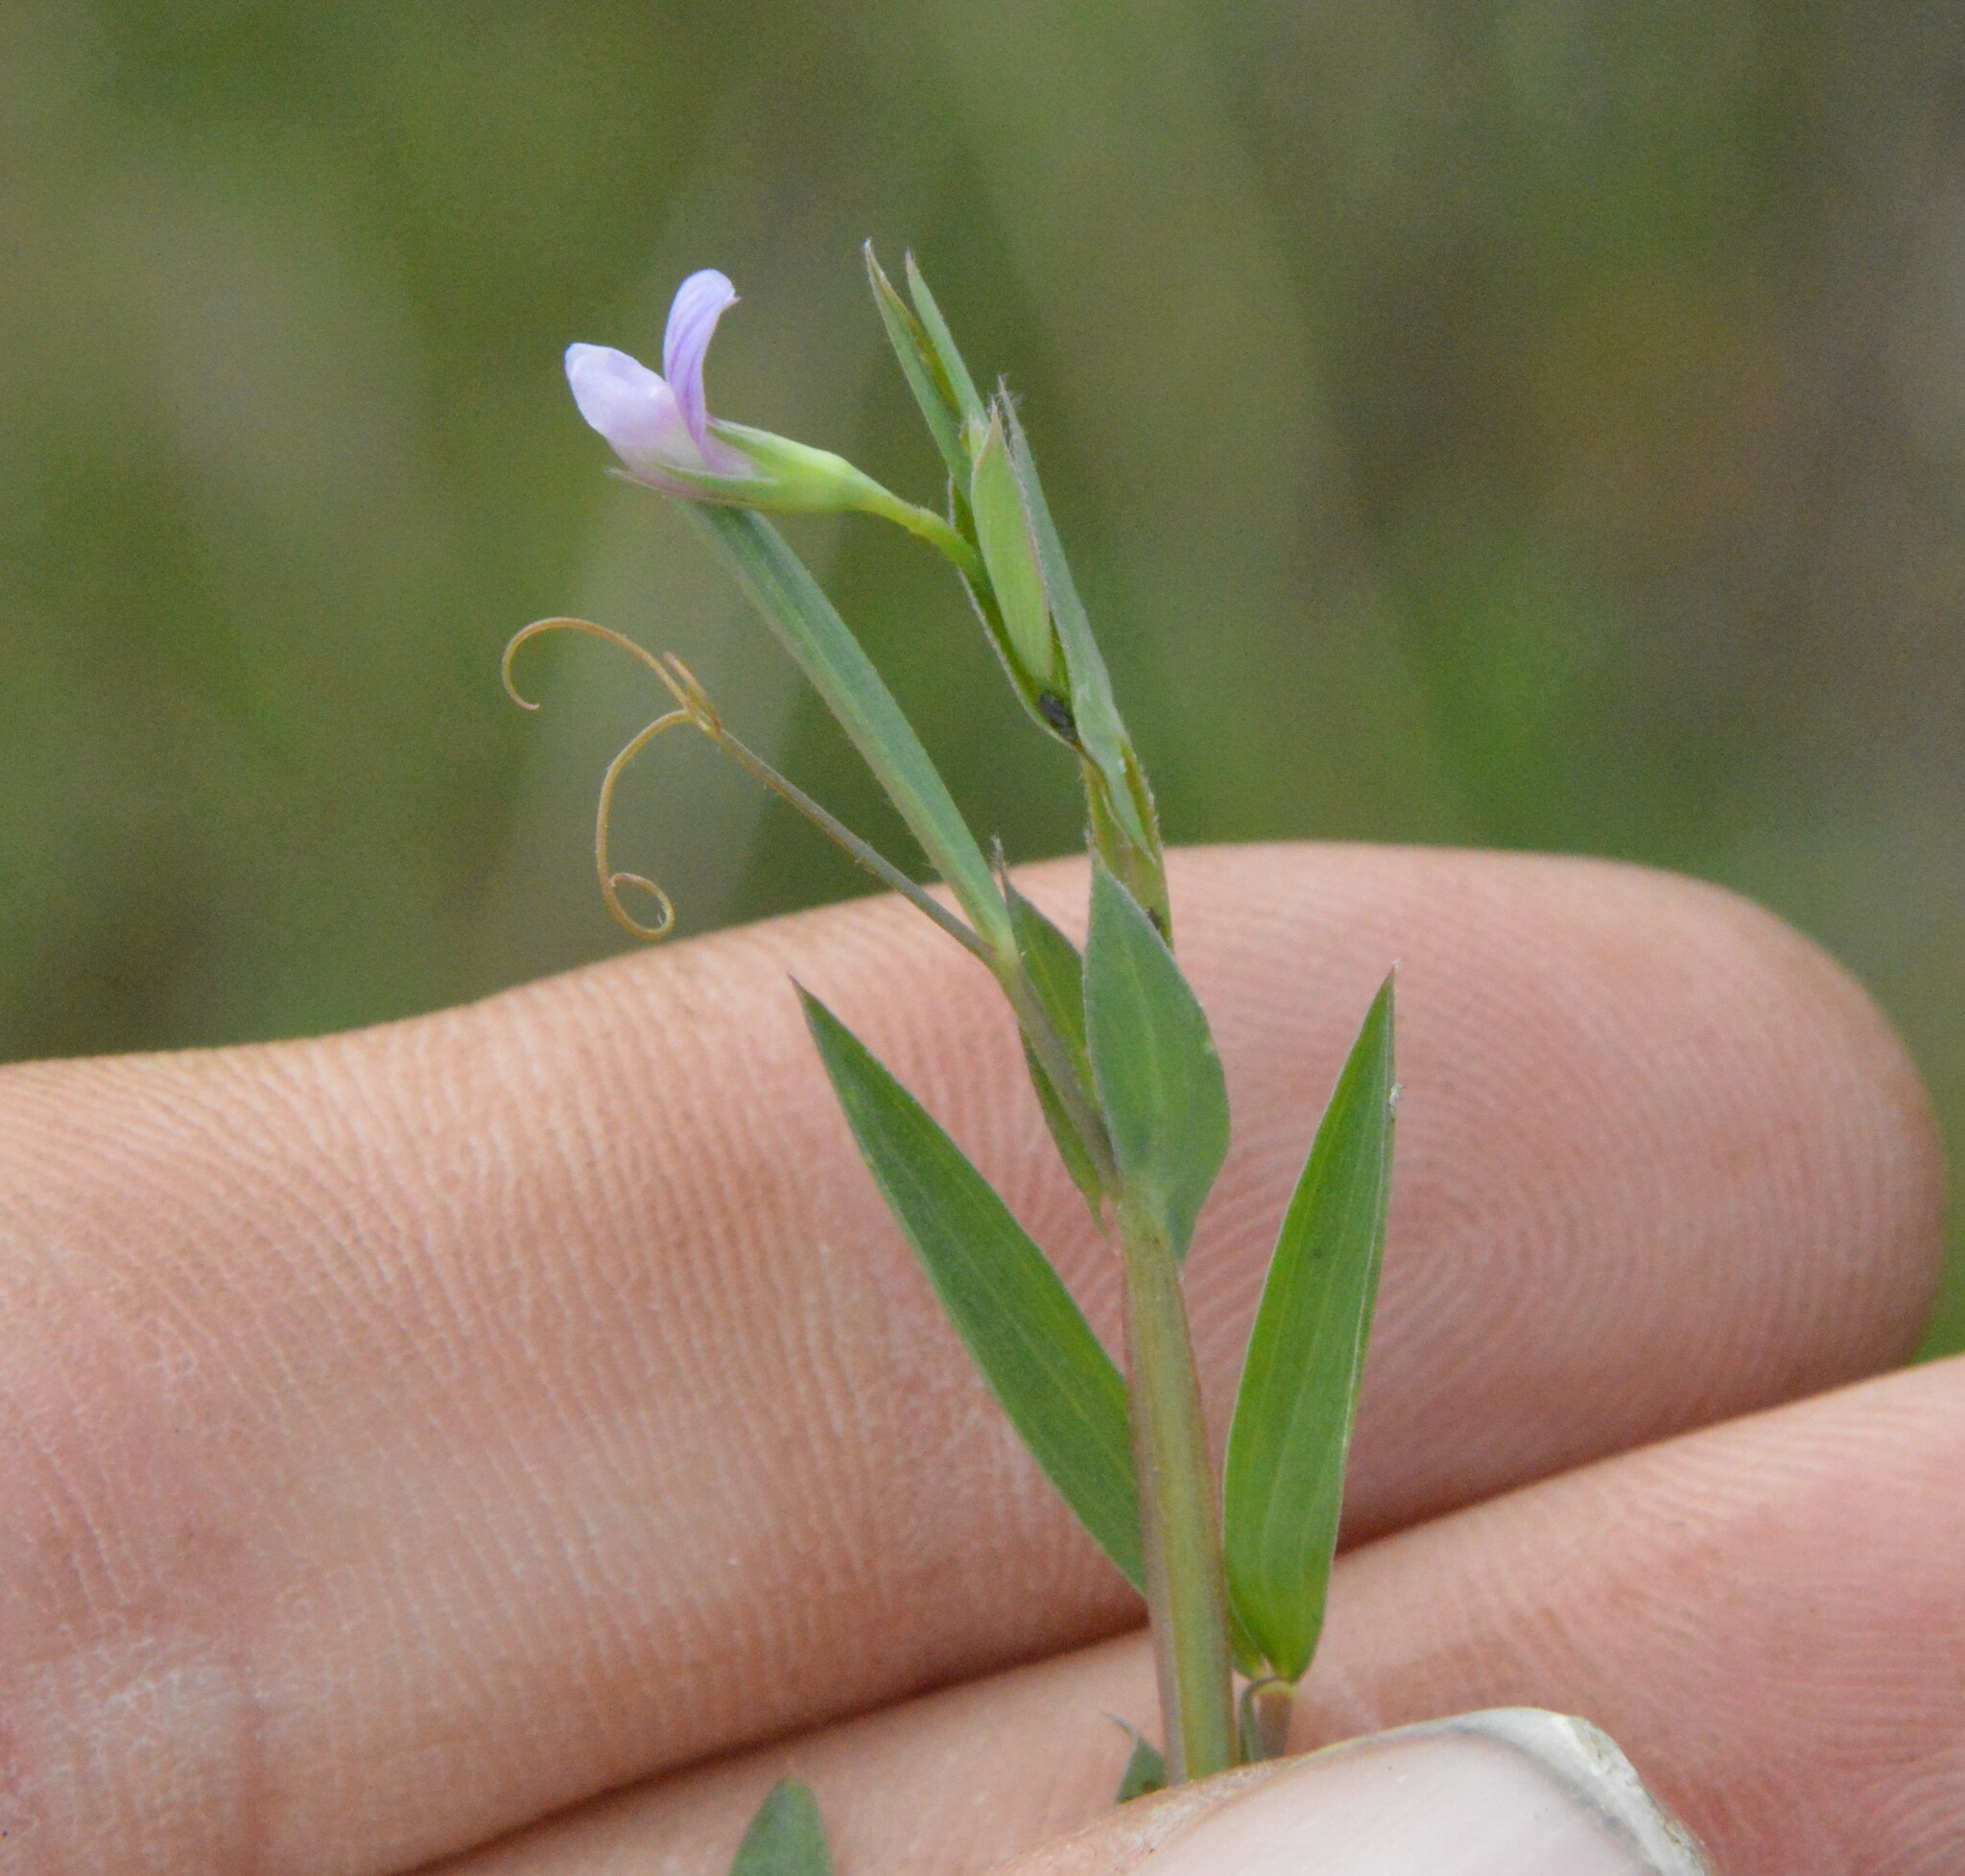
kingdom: Plantae
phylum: Tracheophyta
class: Magnoliopsida
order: Fabales
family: Fabaceae
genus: Lathyrus
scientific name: Lathyrus pusillus
